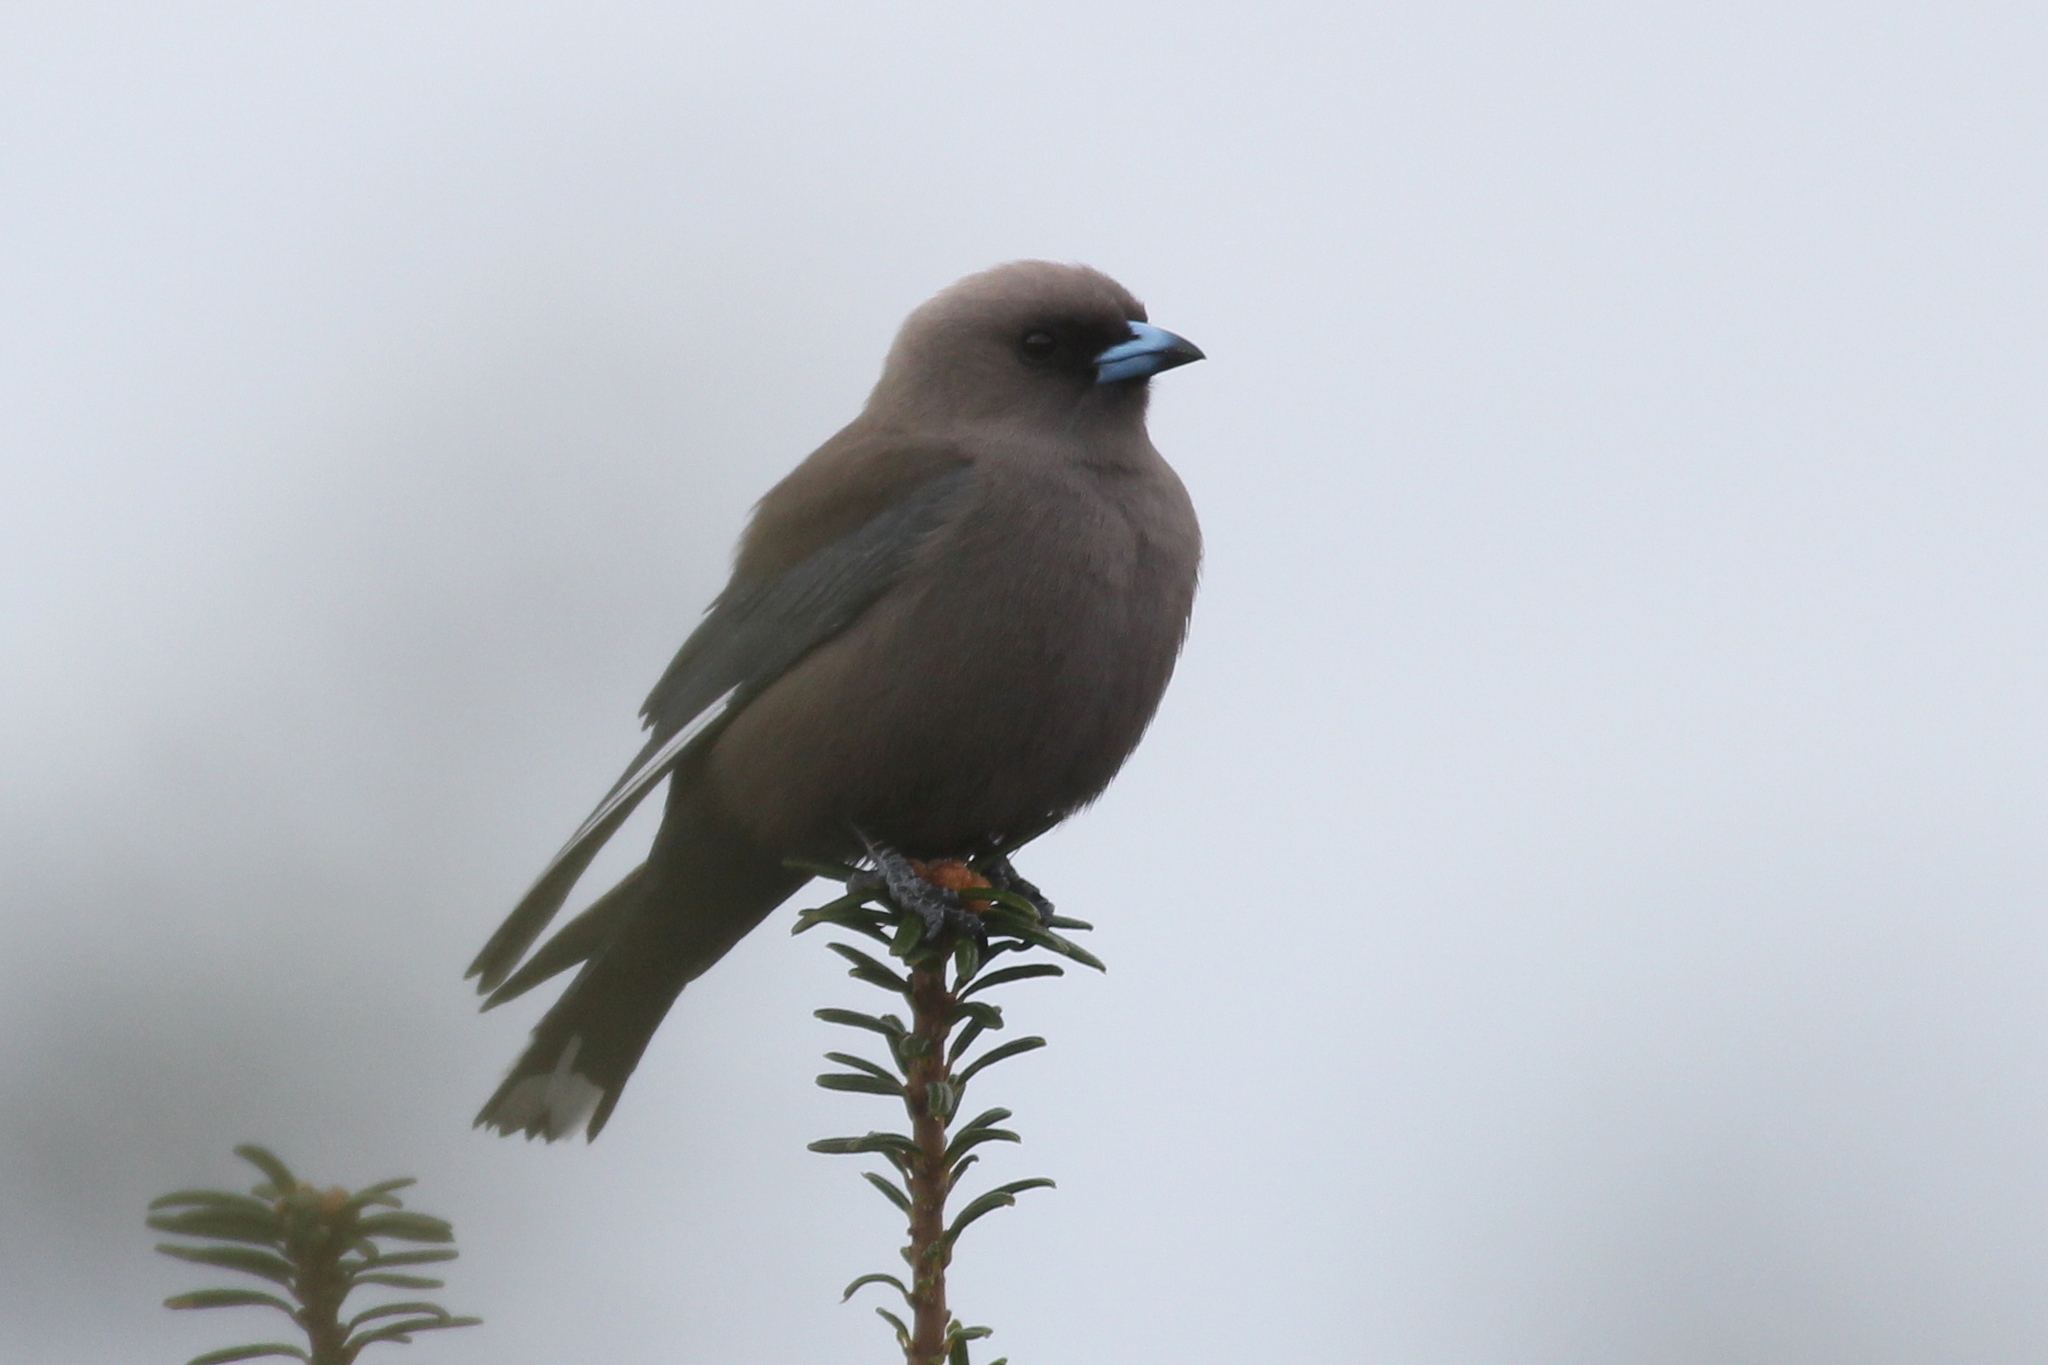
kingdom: Animalia
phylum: Chordata
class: Aves
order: Passeriformes
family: Artamidae
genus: Artamus
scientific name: Artamus cyanopterus
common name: Dusky woodswallow
